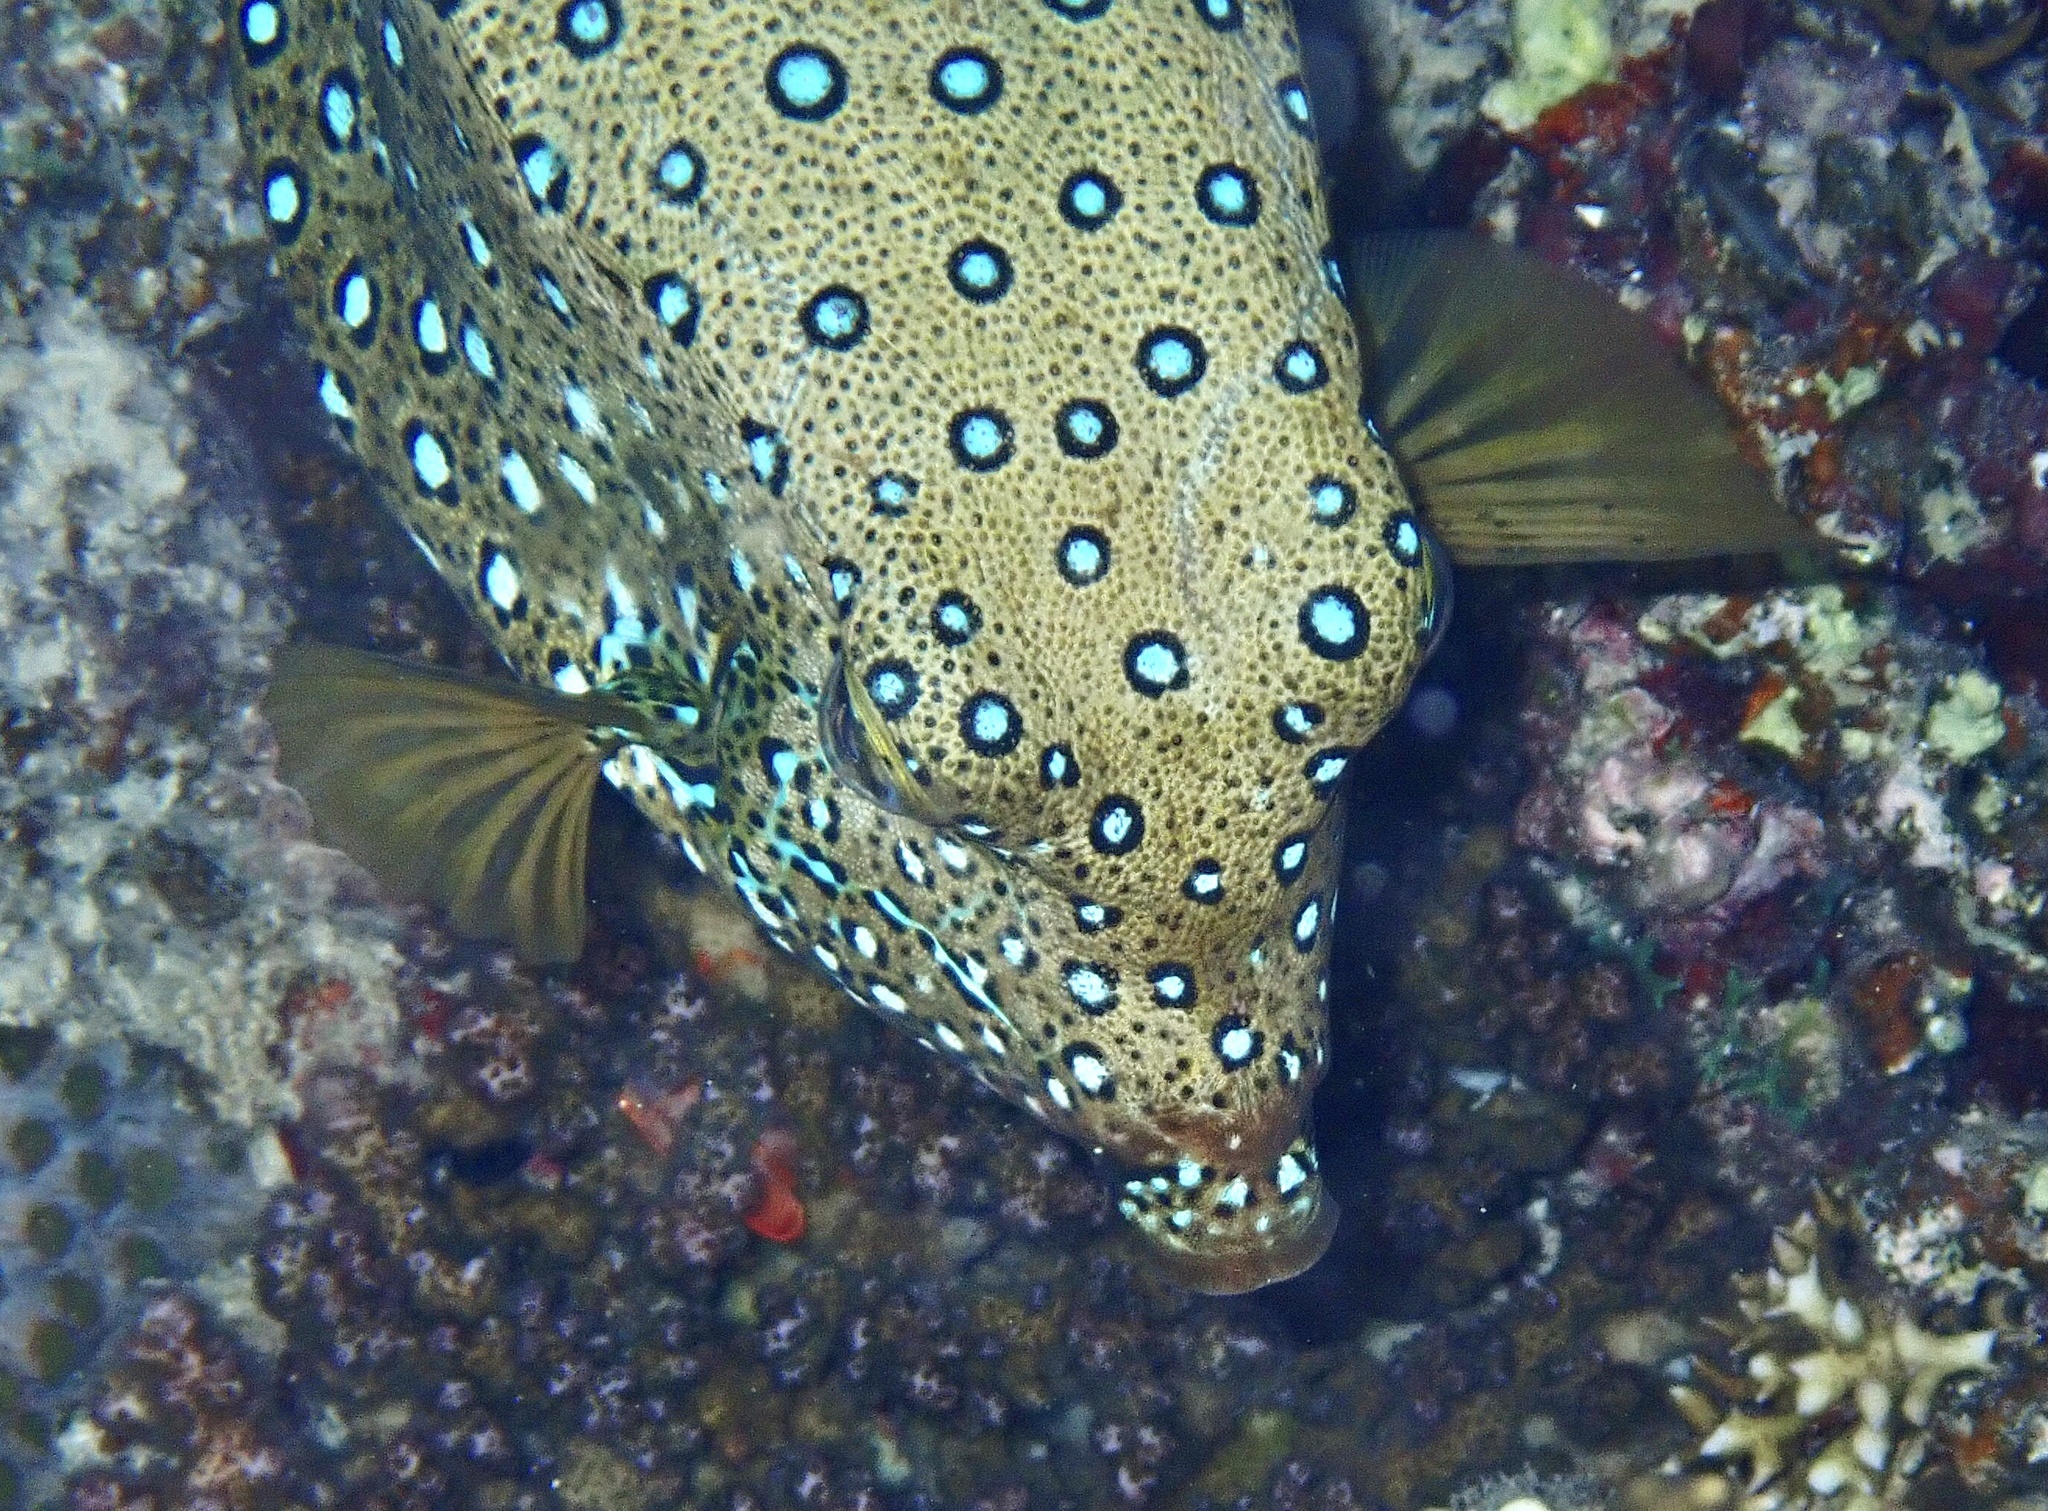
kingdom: Animalia
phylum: Chordata
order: Tetraodontiformes
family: Ostraciidae
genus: Ostracion
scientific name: Ostracion cubicus
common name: Cube trunkfish
